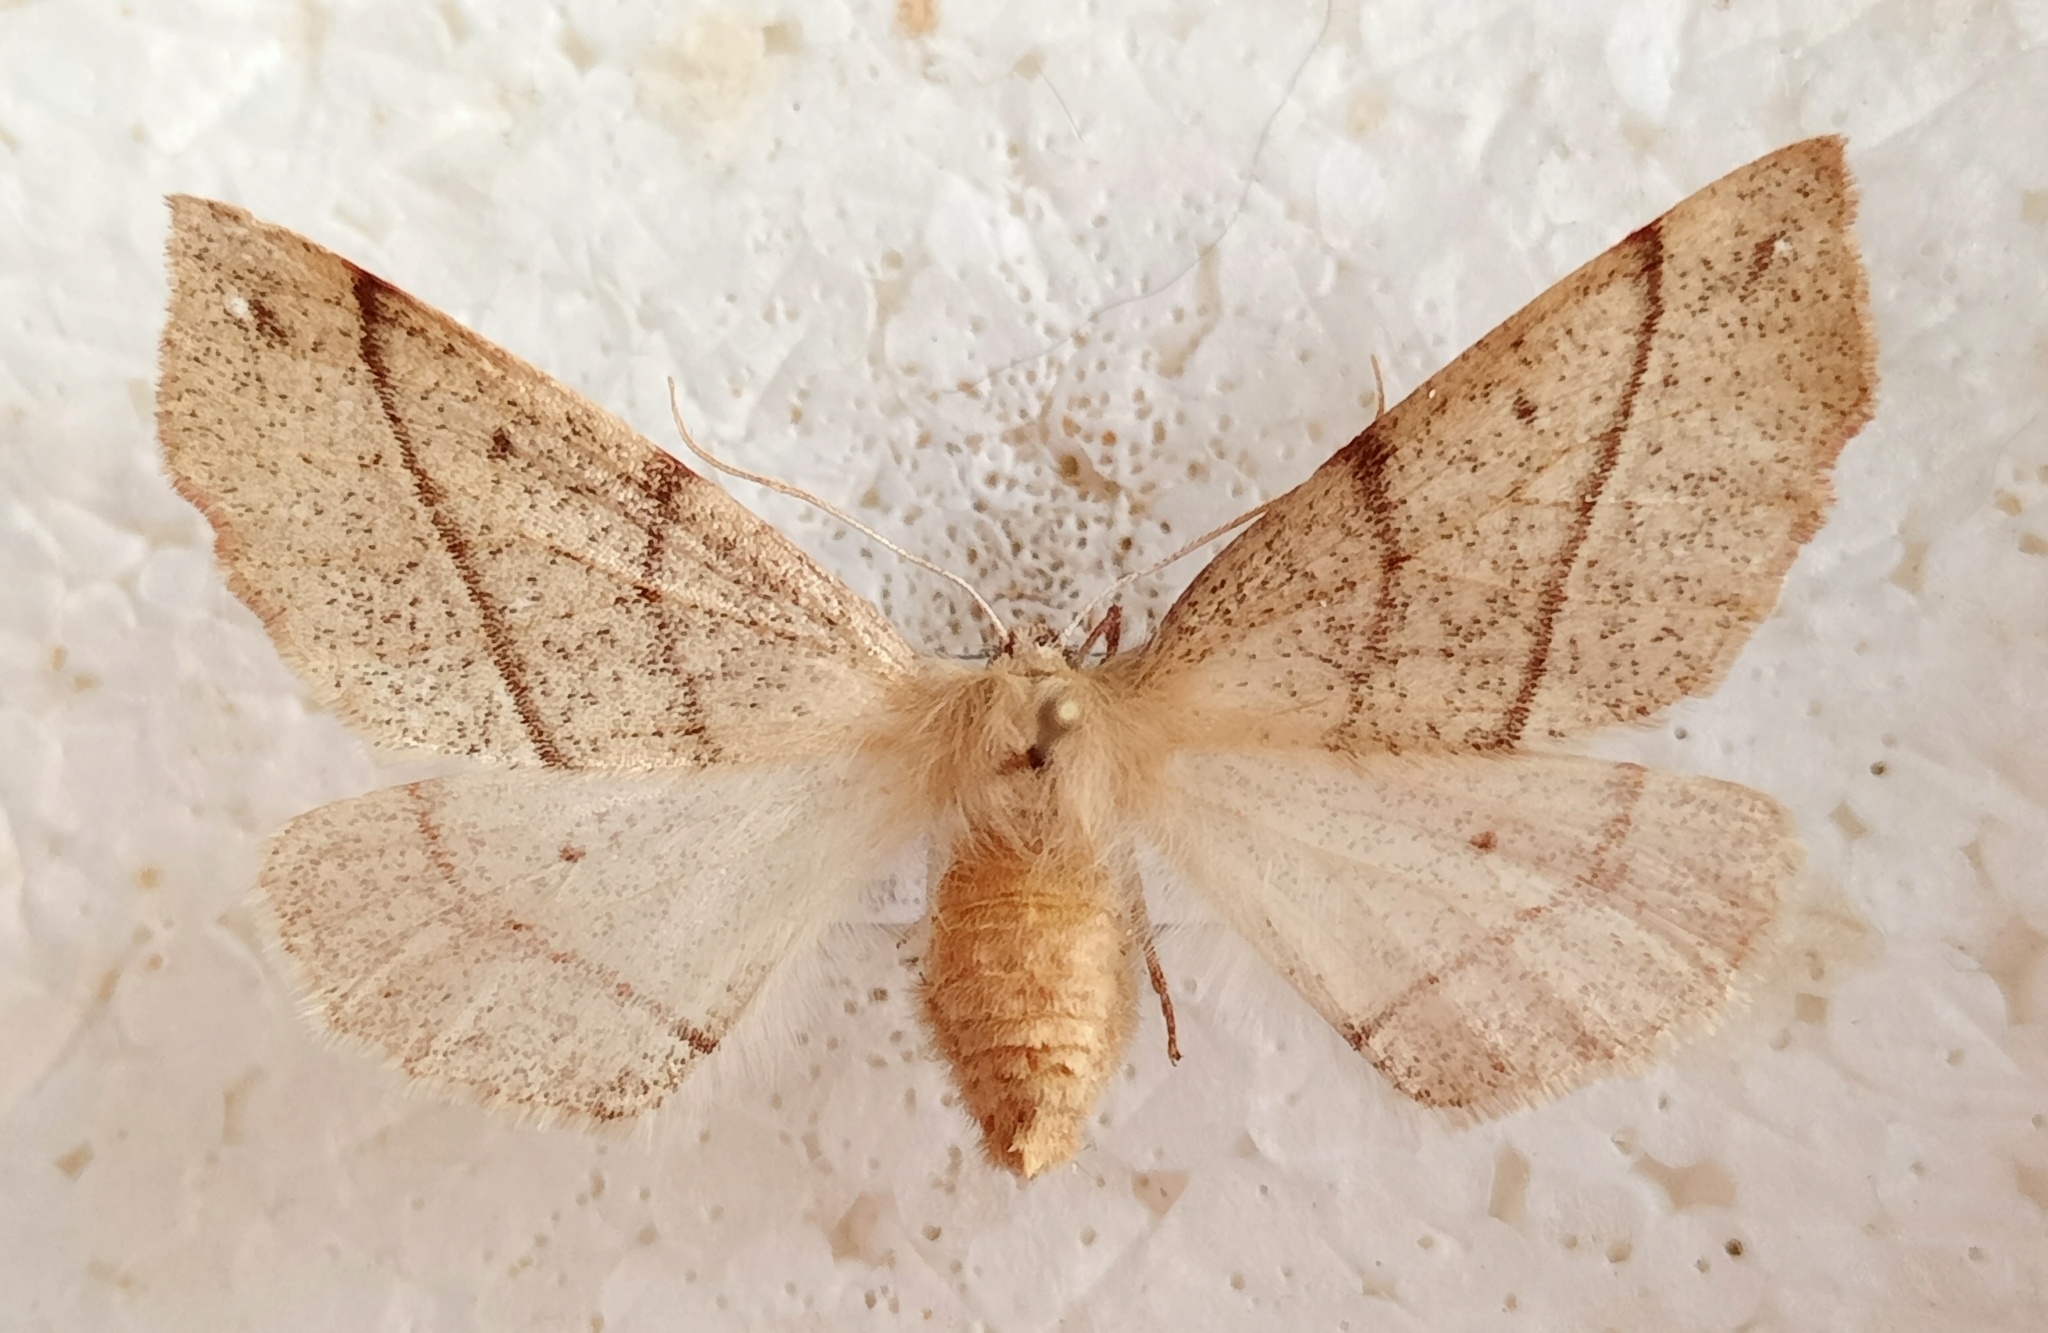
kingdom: Animalia
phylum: Arthropoda
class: Insecta
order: Lepidoptera
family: Geometridae
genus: Colotois
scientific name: Colotois pennaria
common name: Feathered thorn
